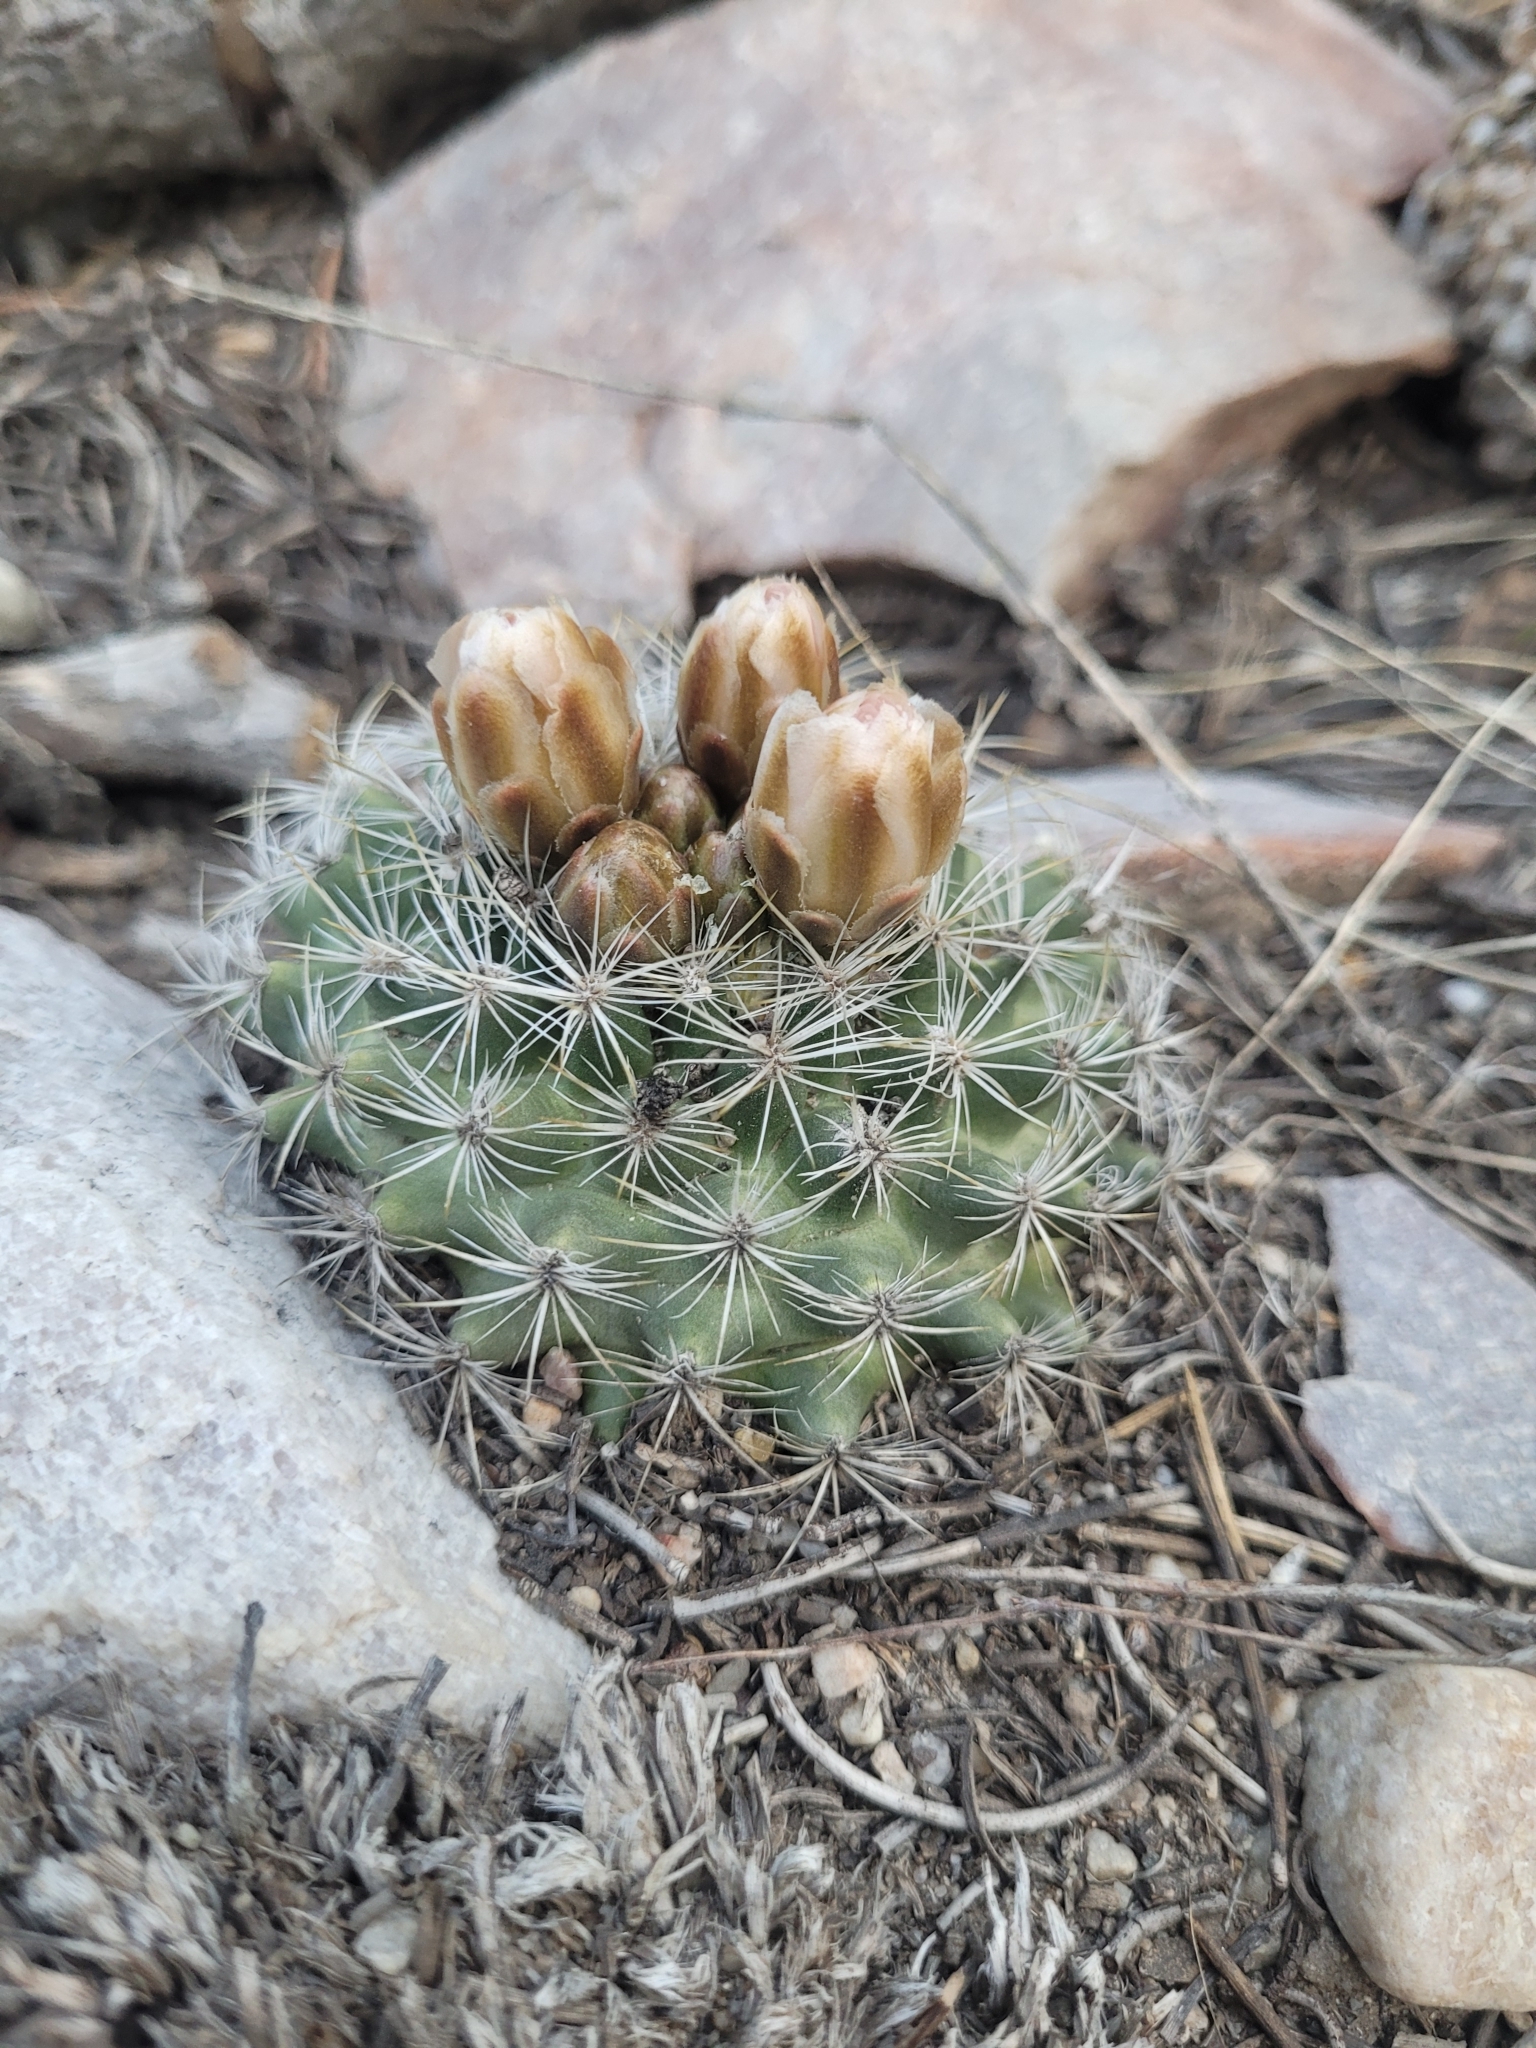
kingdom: Plantae
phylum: Tracheophyta
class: Magnoliopsida
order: Caryophyllales
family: Cactaceae
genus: Pediocactus
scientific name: Pediocactus simpsonii
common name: Simpson's hedgehog cactus
